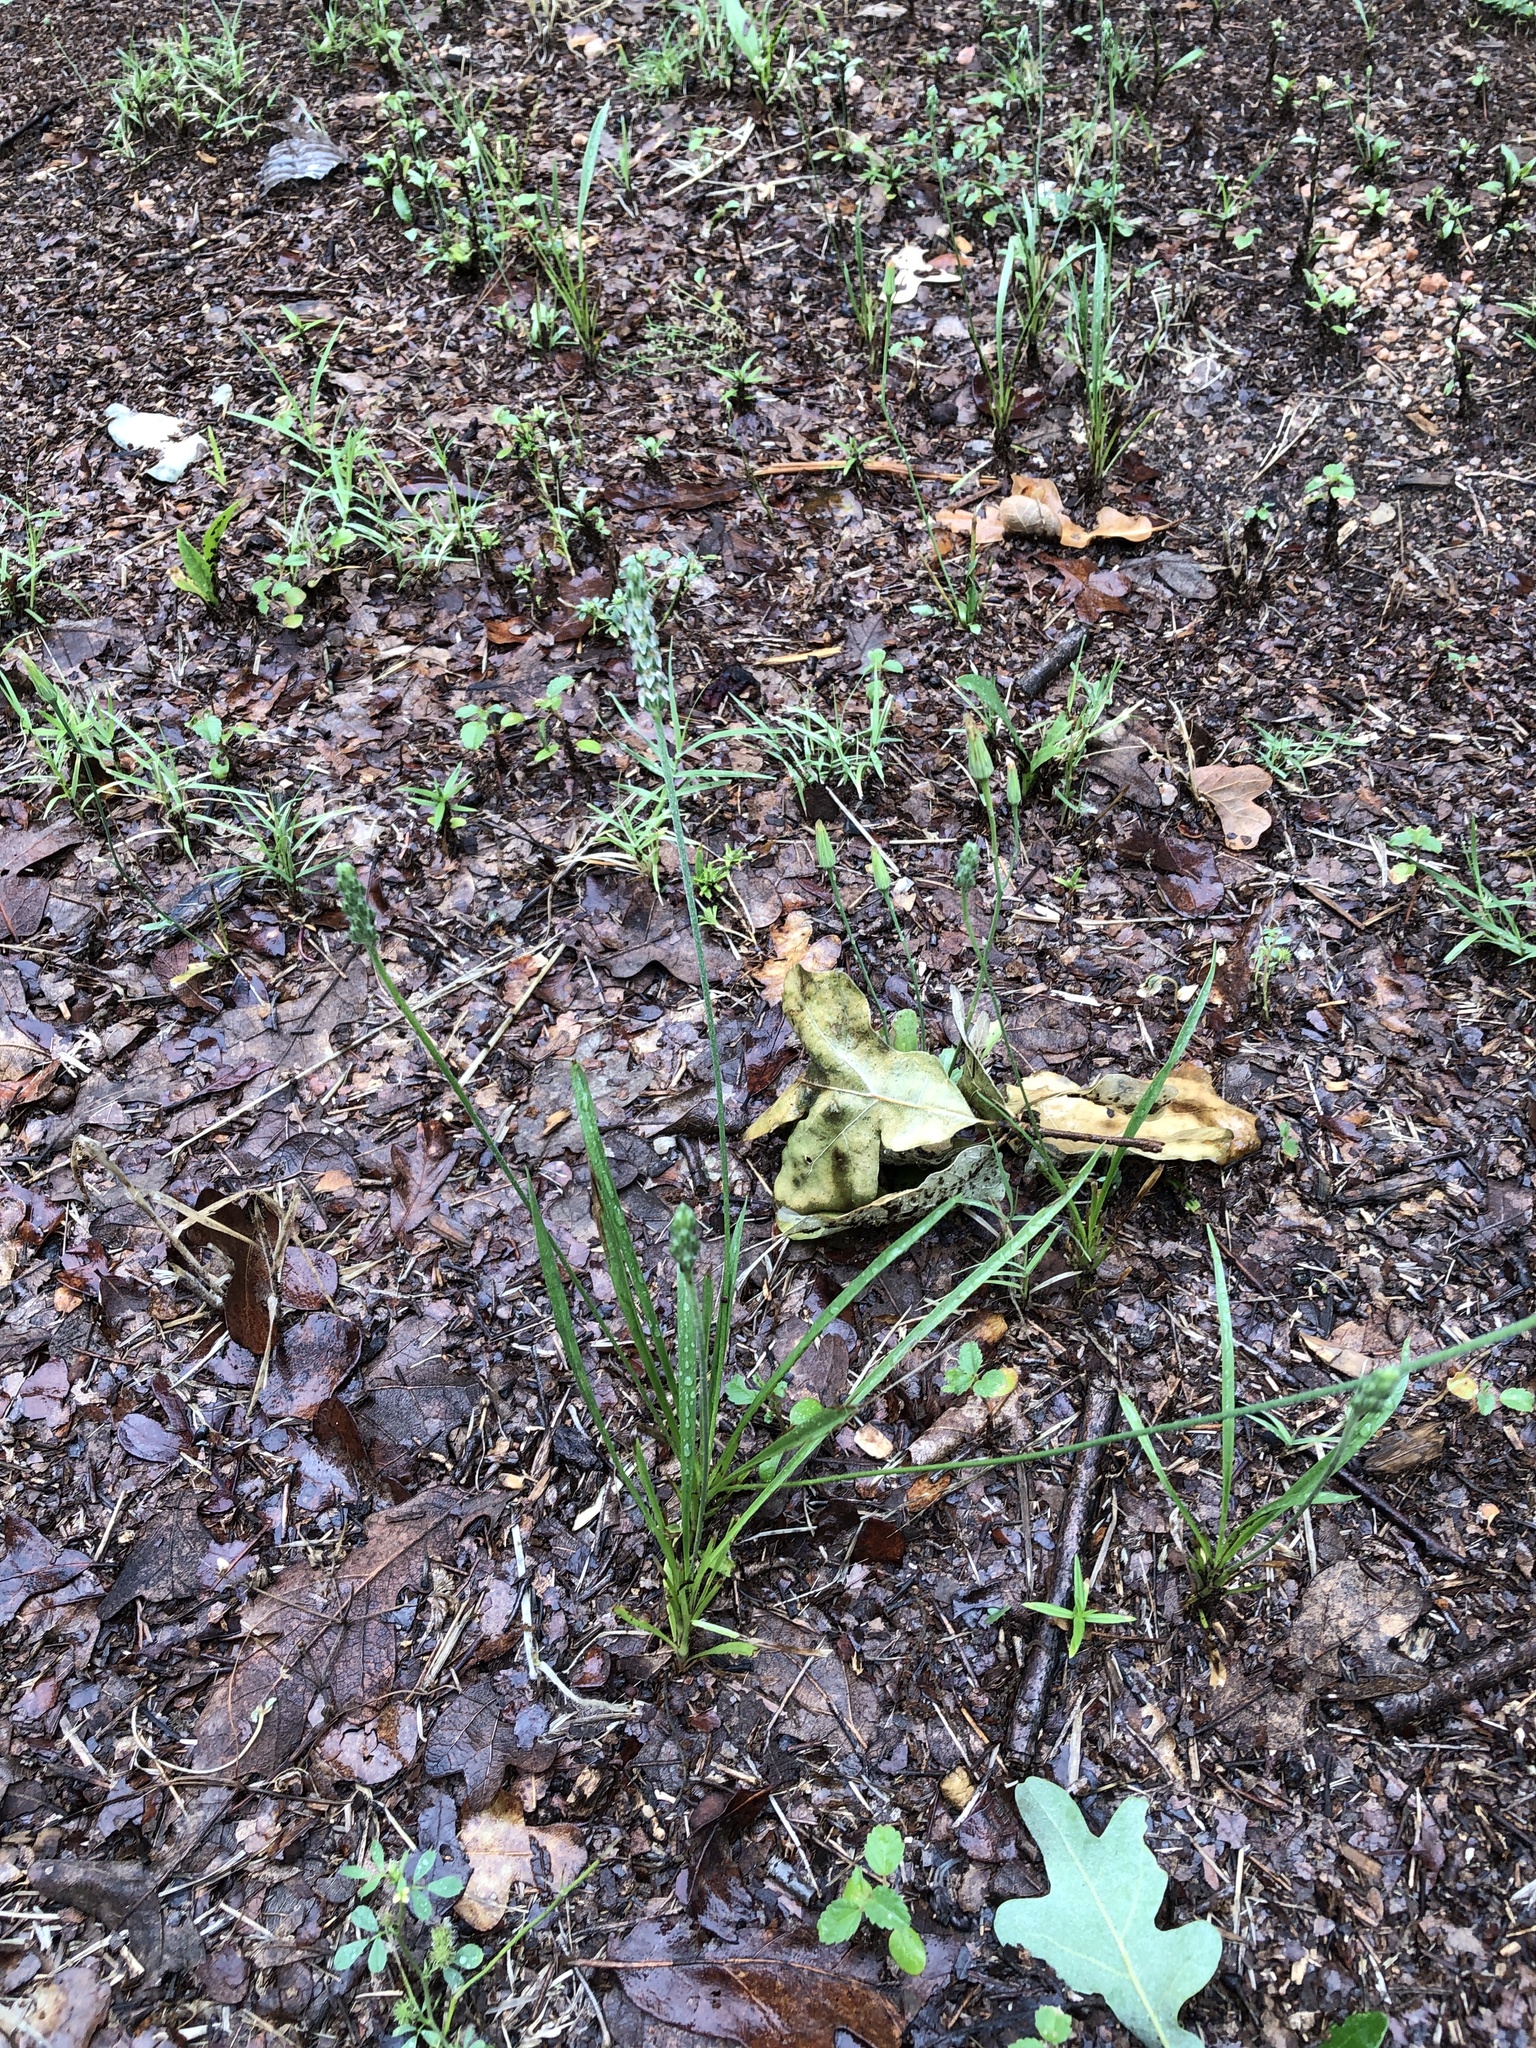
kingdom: Plantae
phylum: Tracheophyta
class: Magnoliopsida
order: Lamiales
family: Plantaginaceae
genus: Plantago
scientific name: Plantago wrightiana
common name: Wright's plantain
